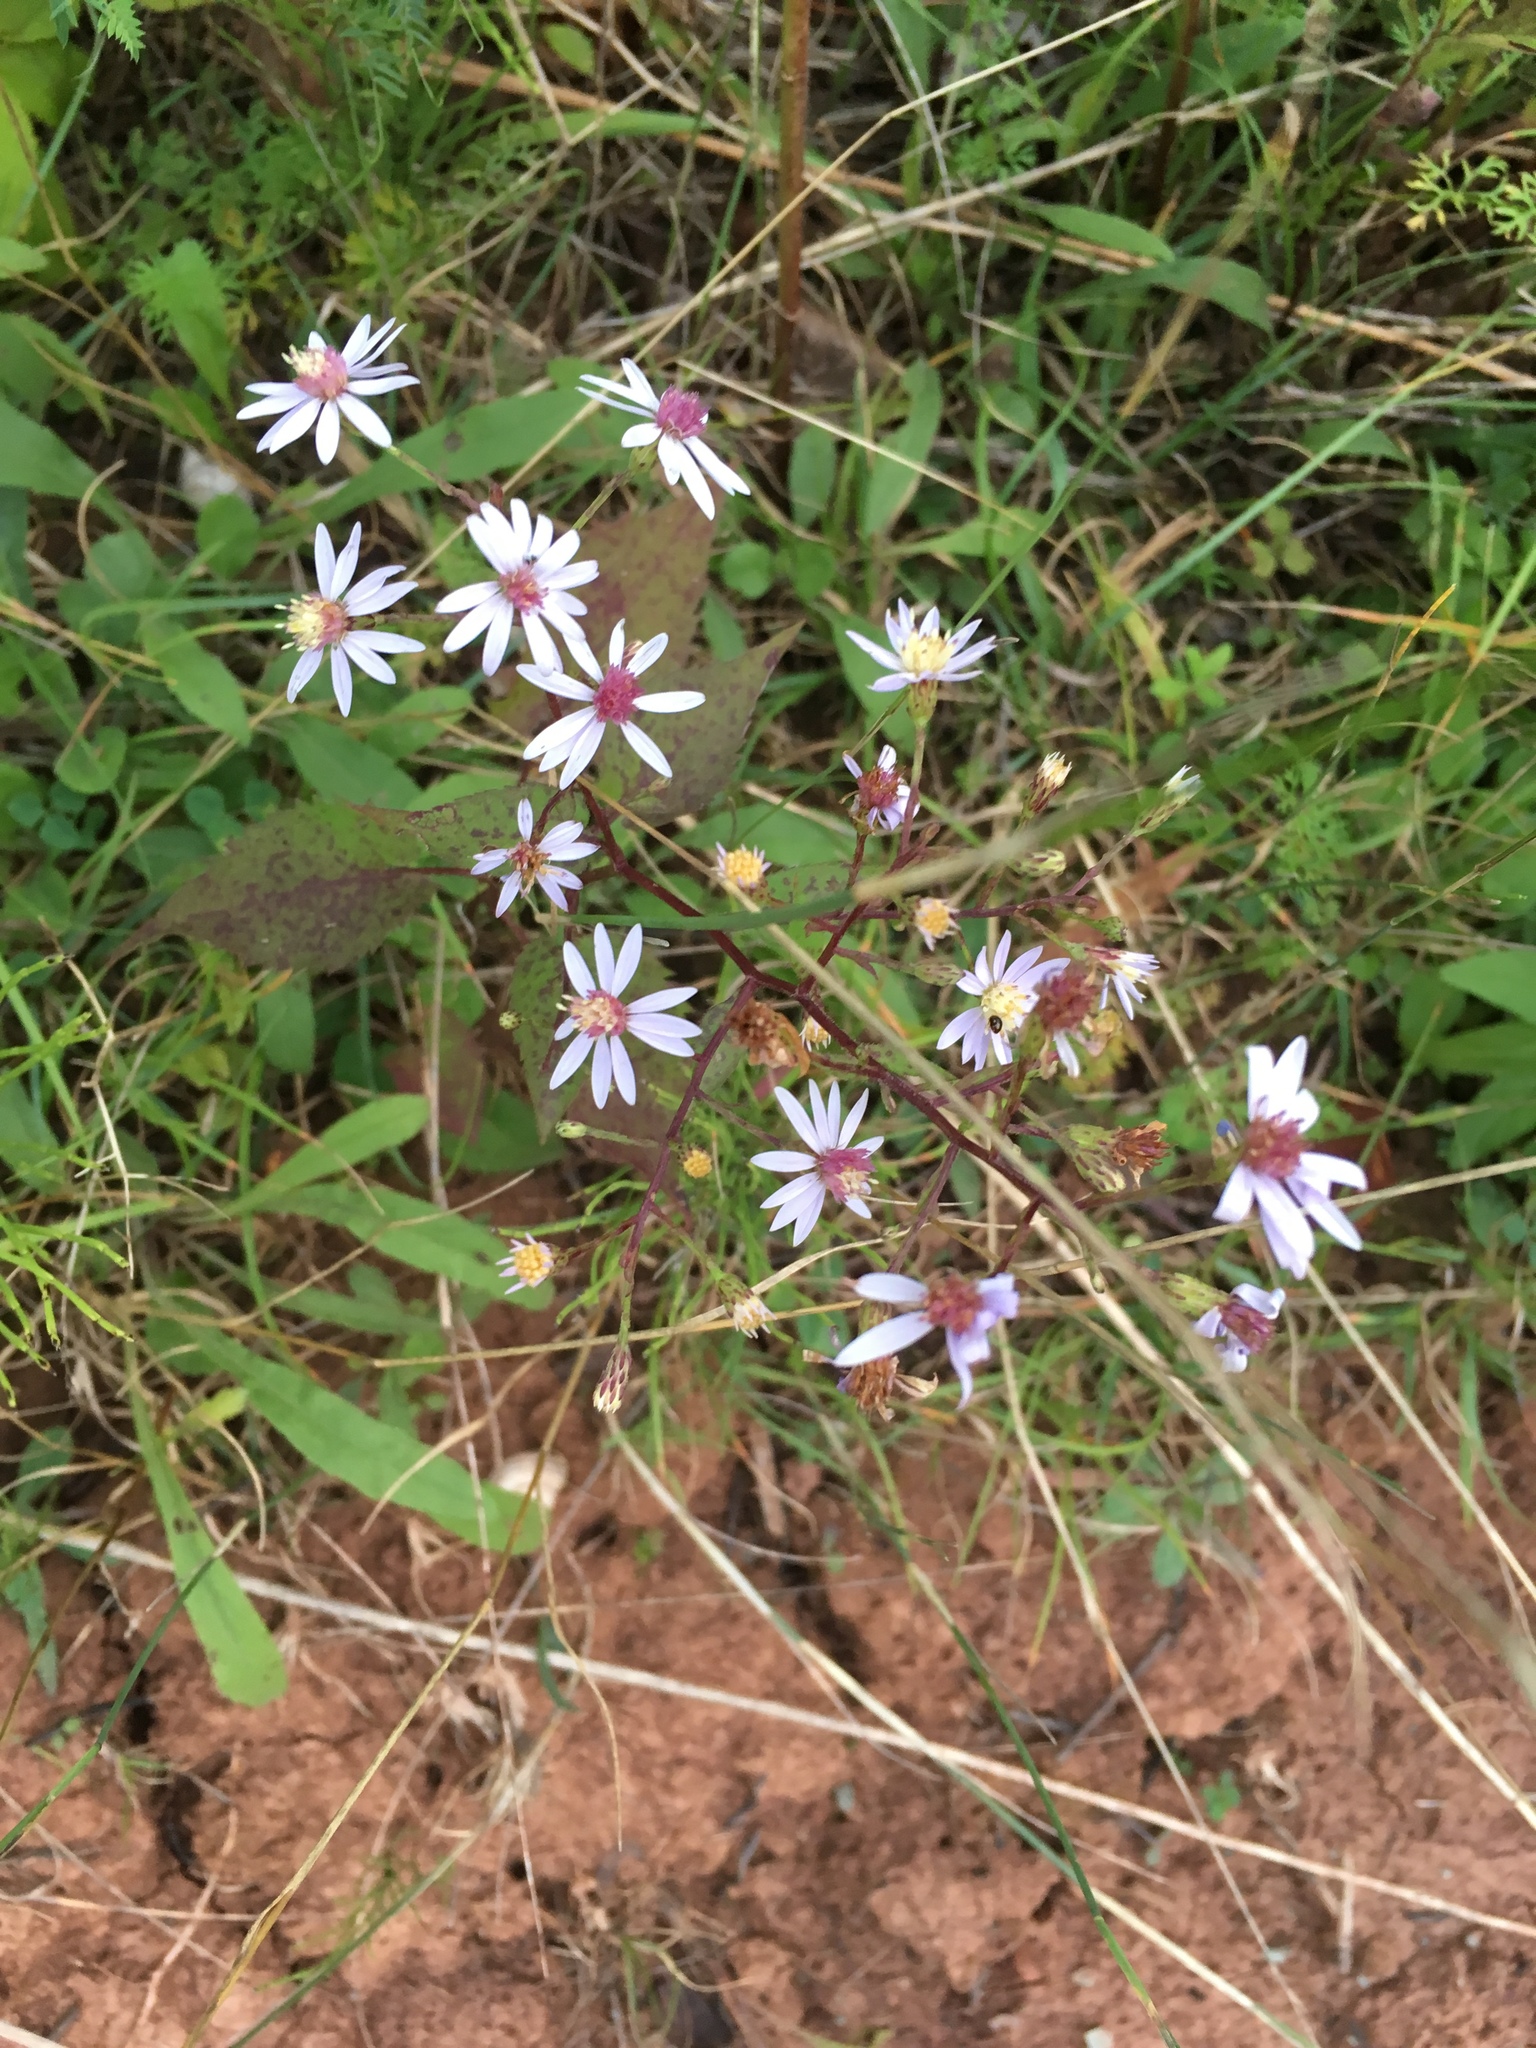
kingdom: Plantae
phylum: Tracheophyta
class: Magnoliopsida
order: Asterales
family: Asteraceae
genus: Symphyotrichum
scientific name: Symphyotrichum cordifolium
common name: Beeweed
